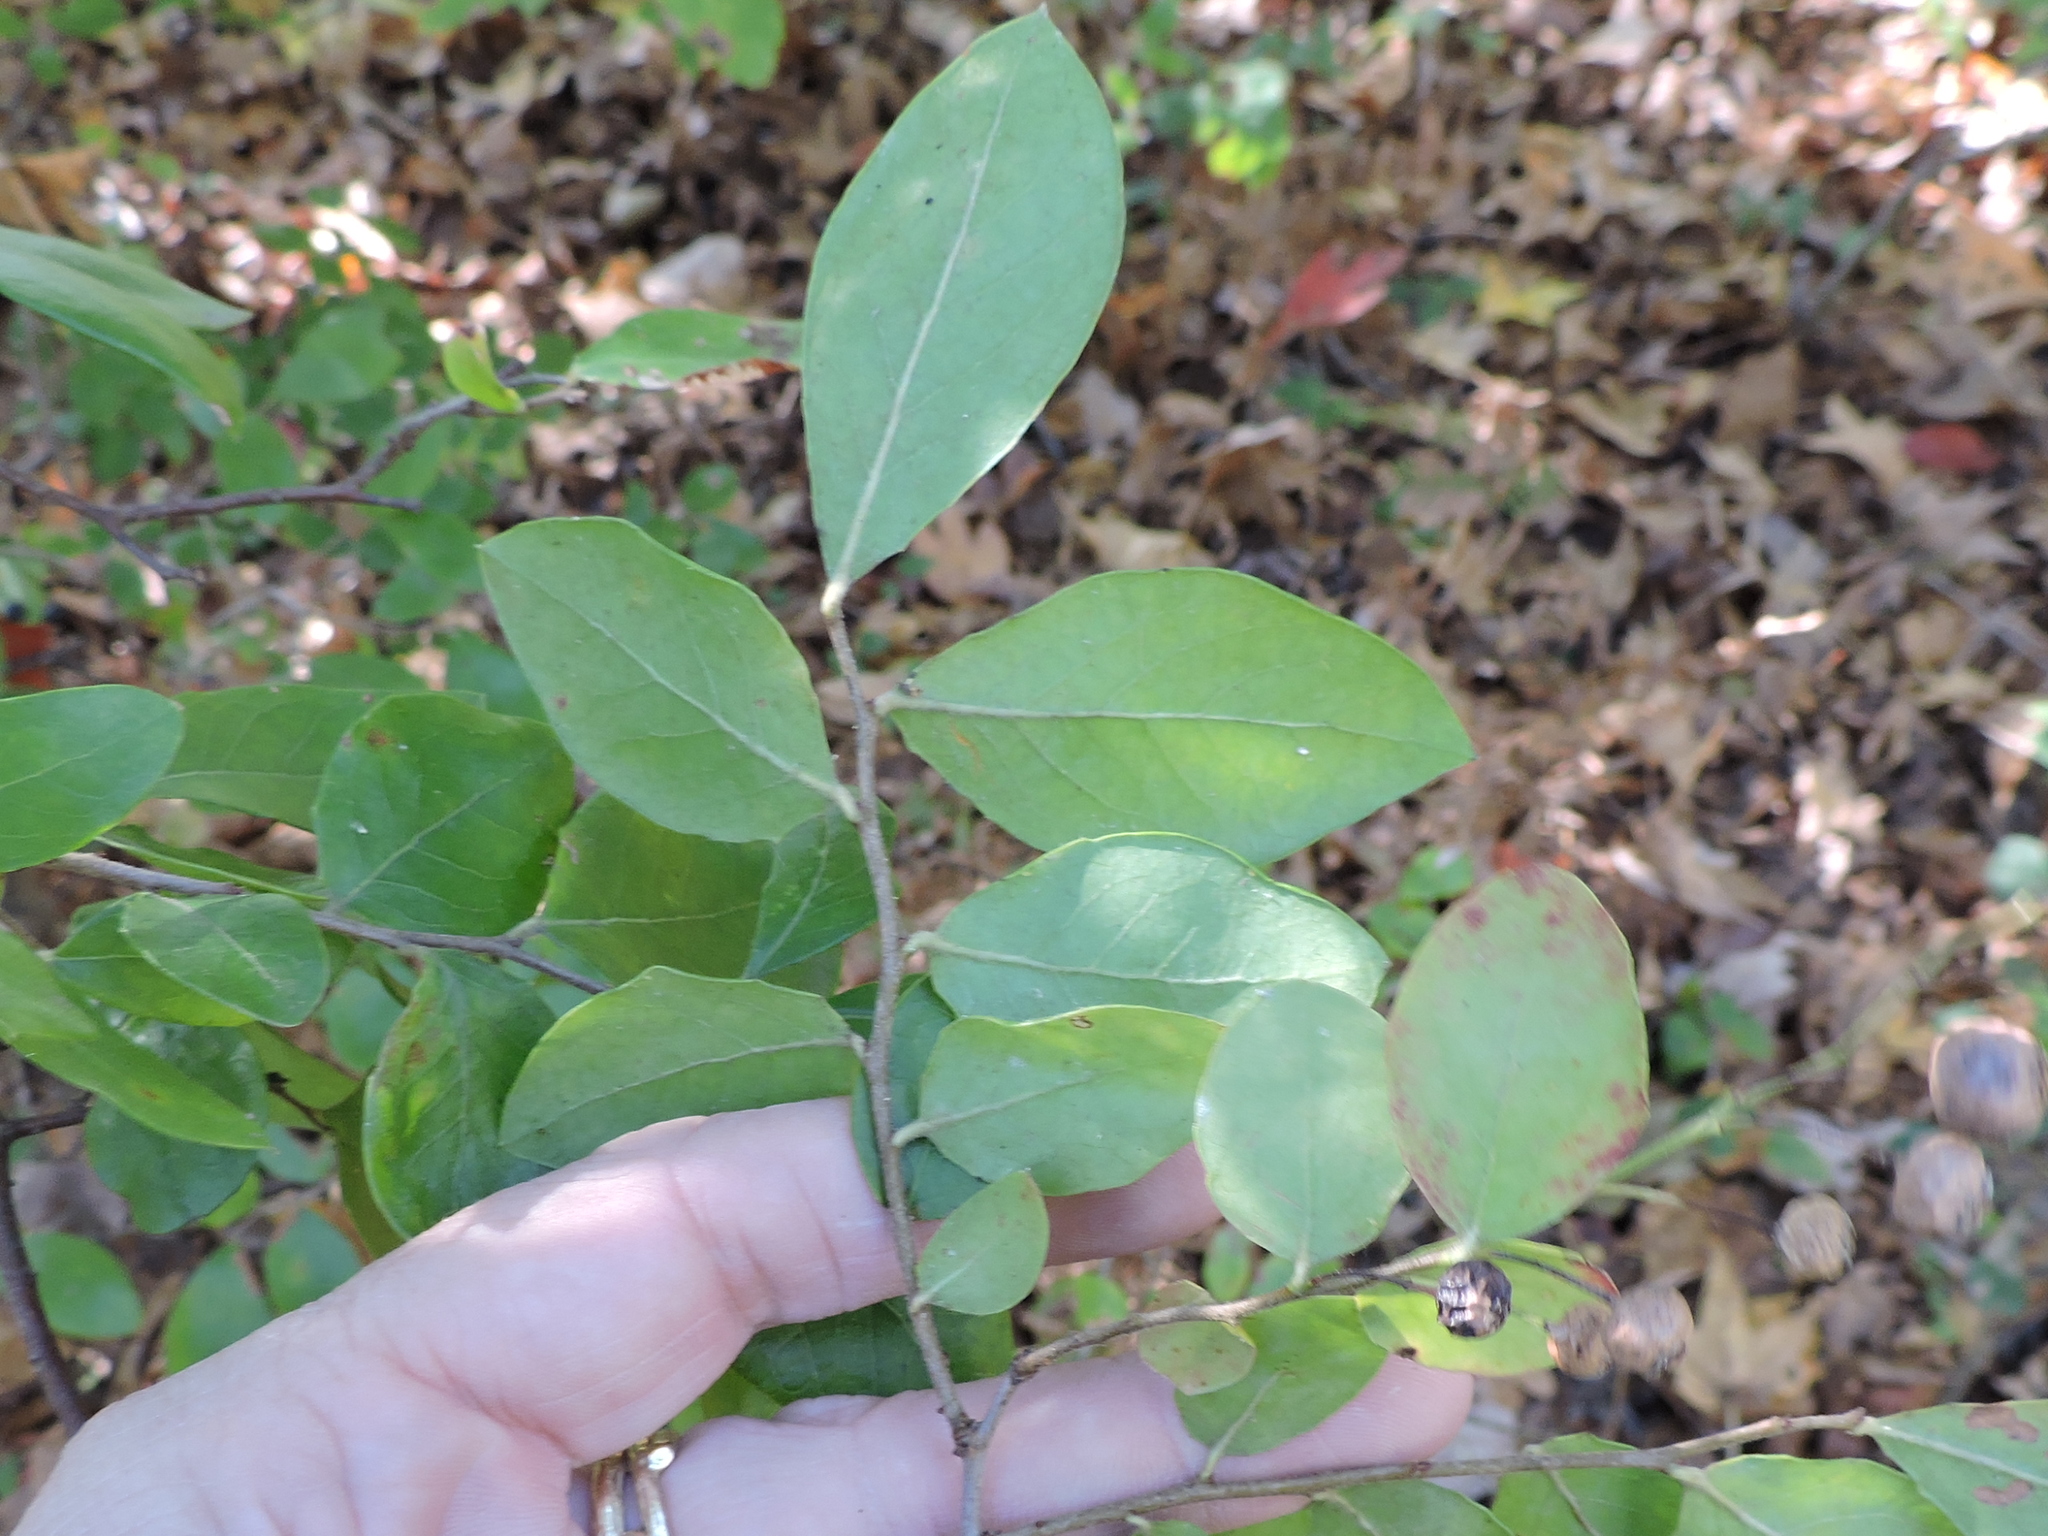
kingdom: Plantae
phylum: Tracheophyta
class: Magnoliopsida
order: Ericales
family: Ericaceae
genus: Vaccinium
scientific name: Vaccinium arboreum
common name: Farkleberry
